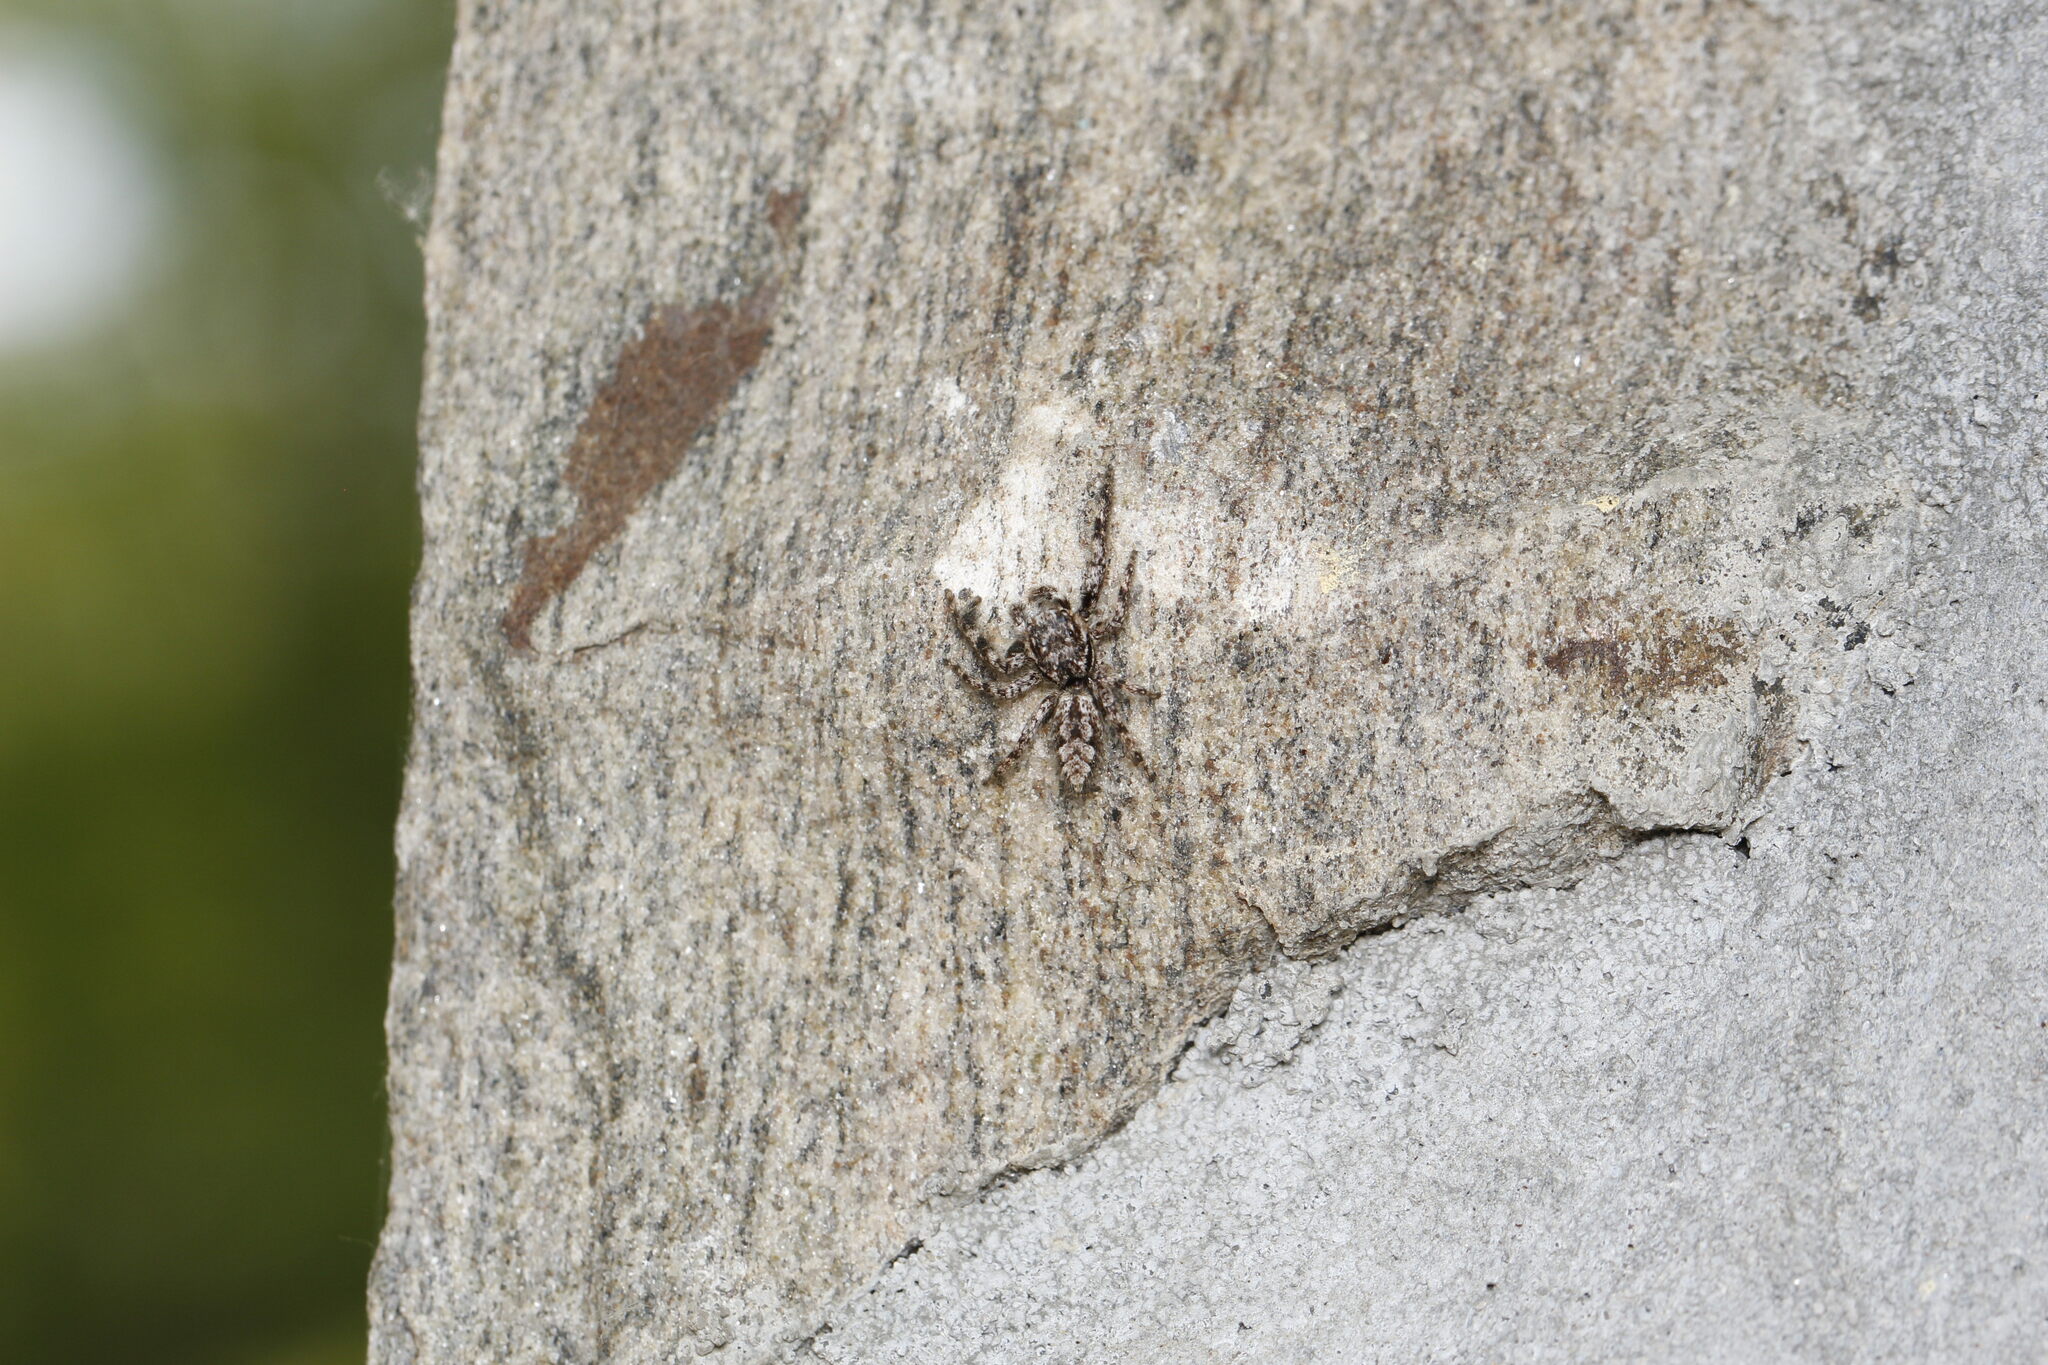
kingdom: Animalia
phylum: Arthropoda
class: Arachnida
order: Araneae
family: Salticidae
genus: Platycryptus
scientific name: Platycryptus undatus
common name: Tan jumping spider
